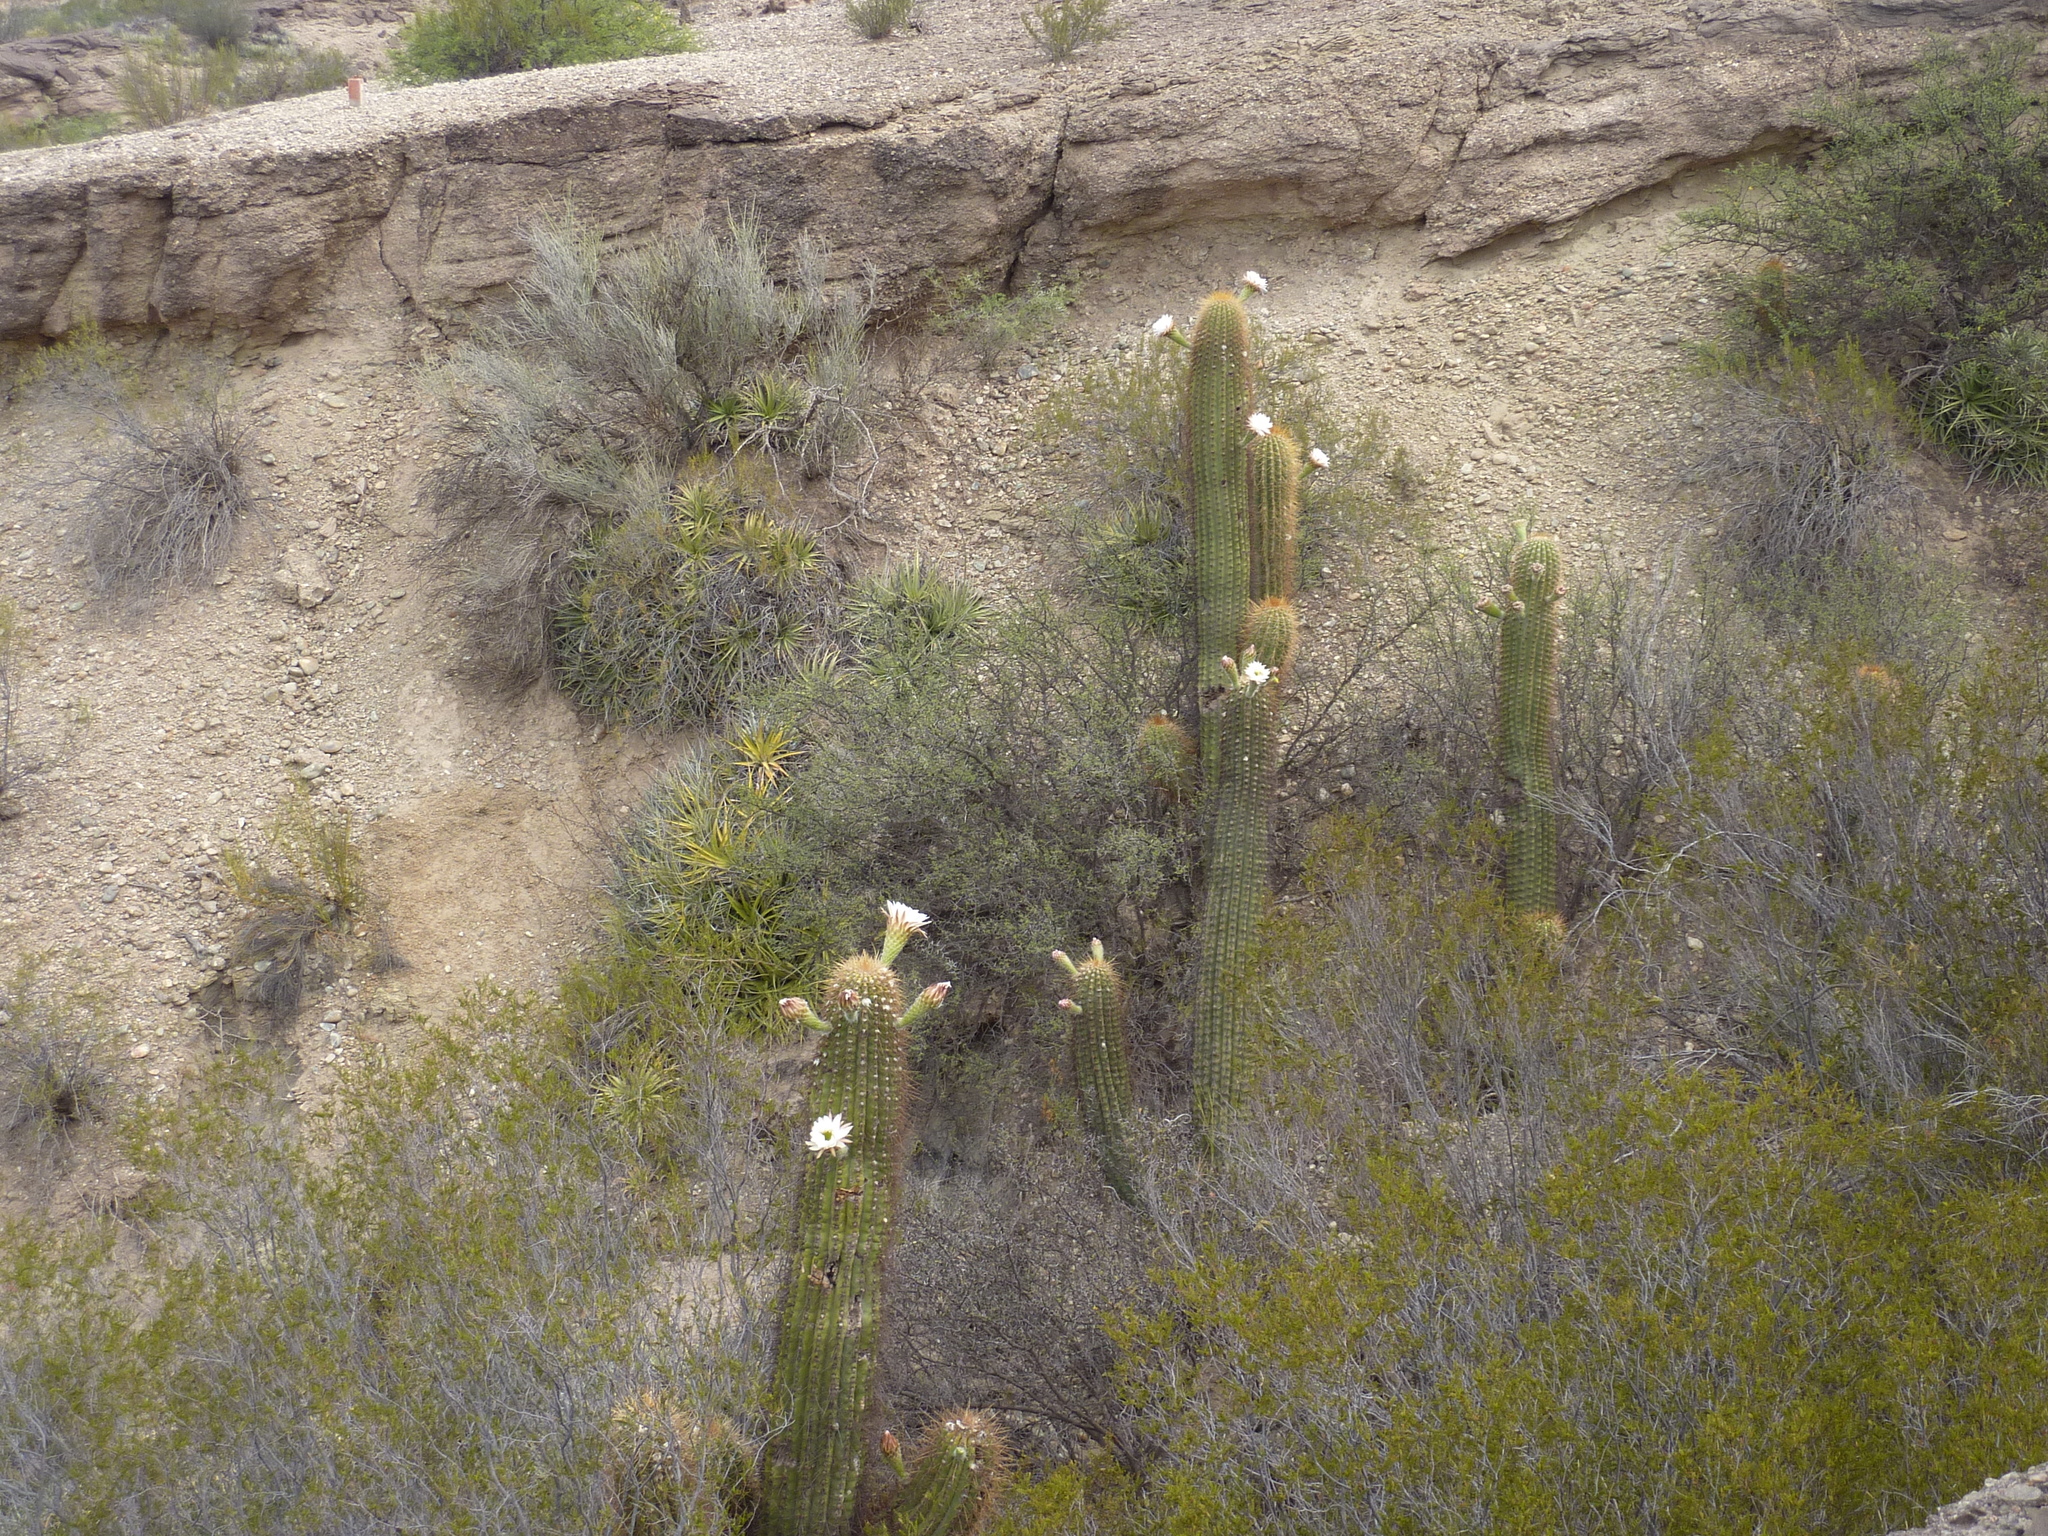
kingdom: Plantae
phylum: Tracheophyta
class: Magnoliopsida
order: Caryophyllales
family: Cactaceae
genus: Leucostele
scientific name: Leucostele terscheckii
